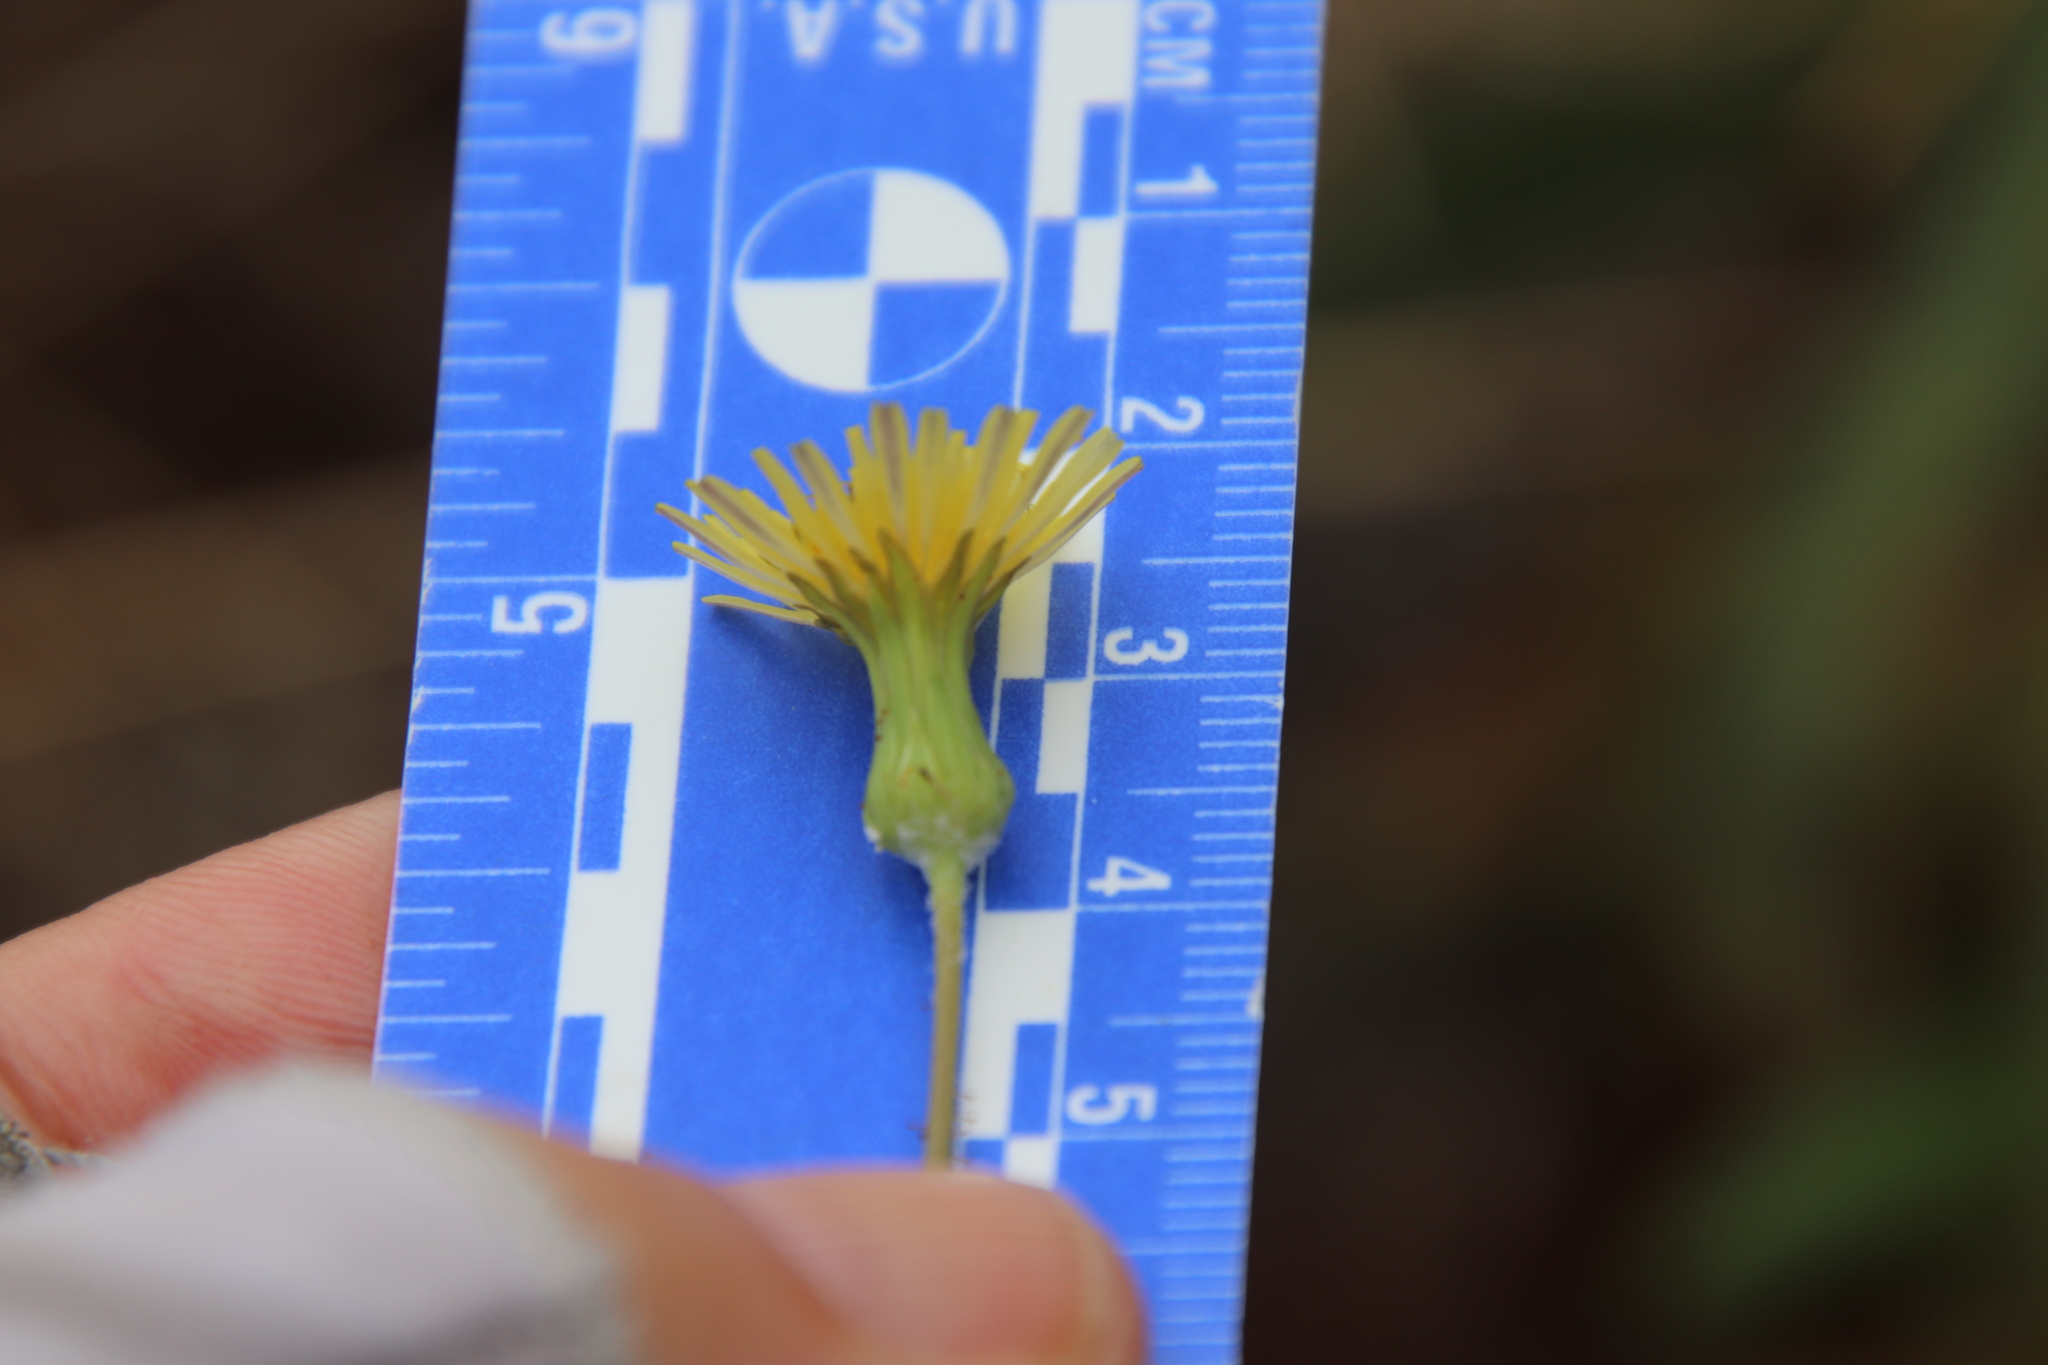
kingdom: Plantae
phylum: Tracheophyta
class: Magnoliopsida
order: Asterales
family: Asteraceae
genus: Sonchus
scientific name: Sonchus oleraceus
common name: Common sowthistle
